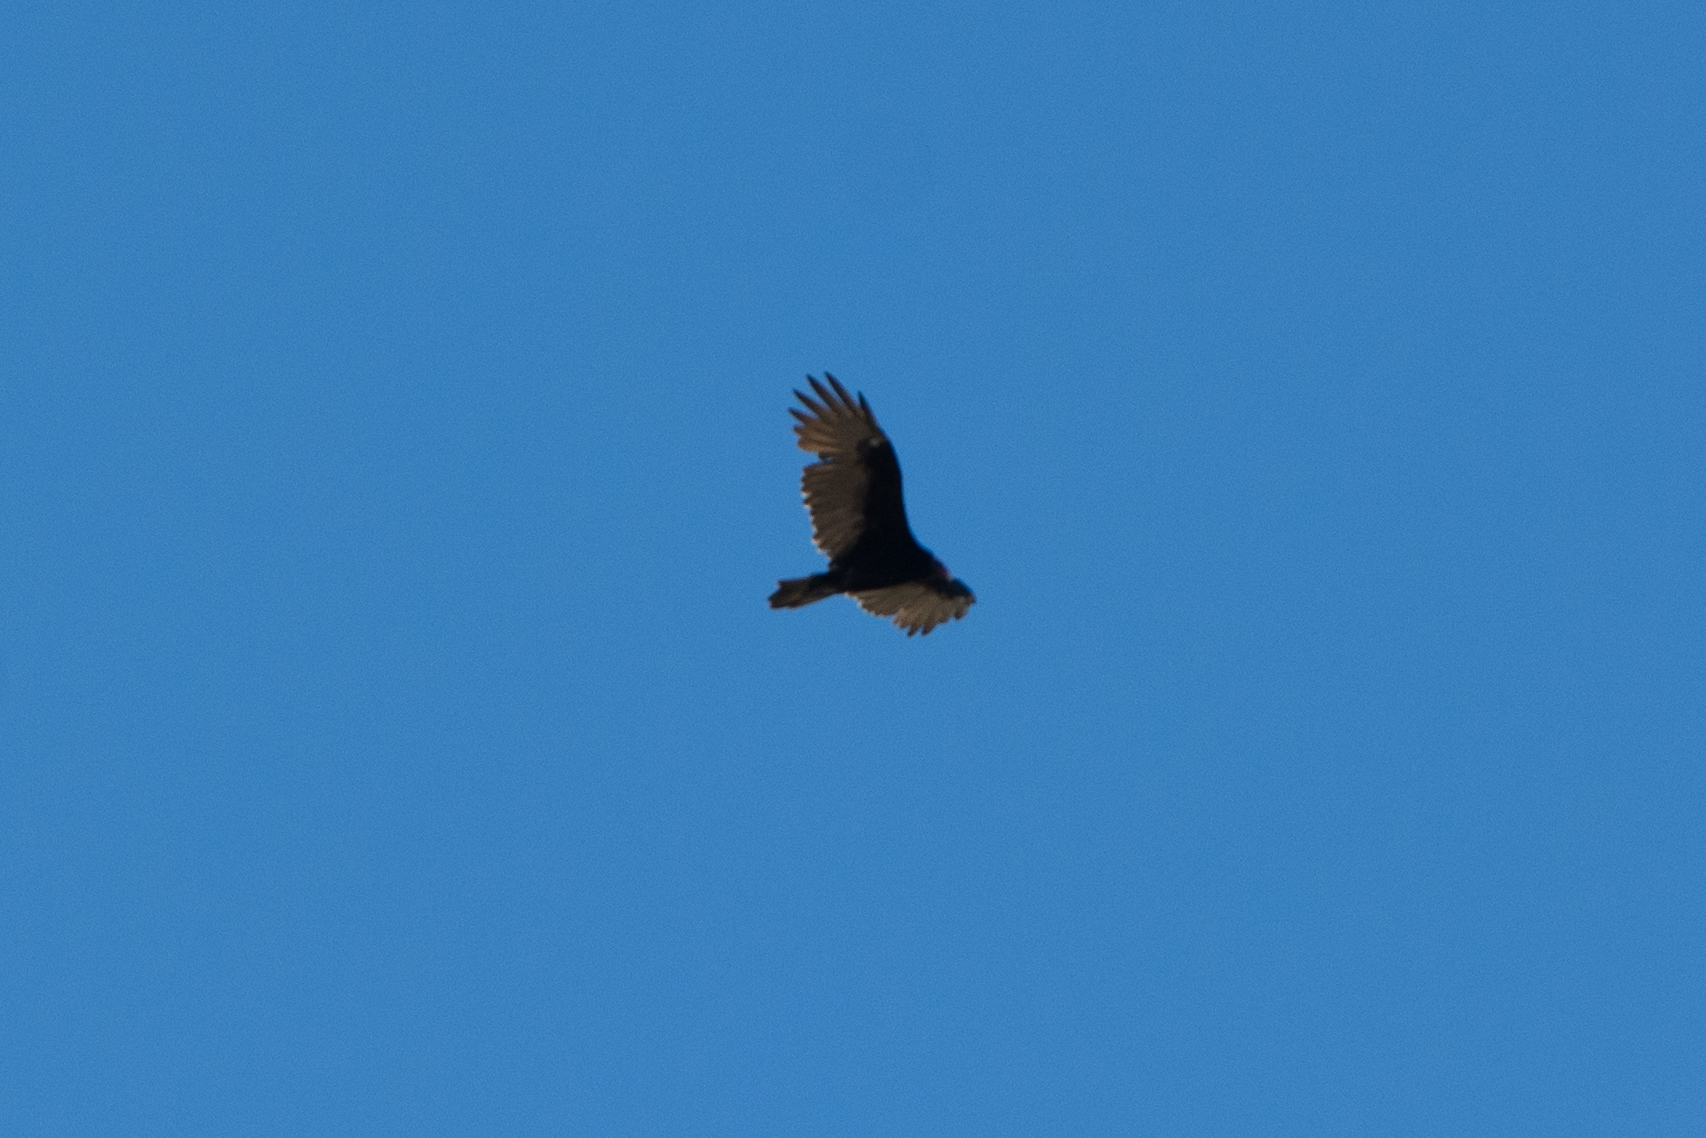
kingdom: Animalia
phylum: Chordata
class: Aves
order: Accipitriformes
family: Cathartidae
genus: Cathartes
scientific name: Cathartes aura
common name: Turkey vulture
